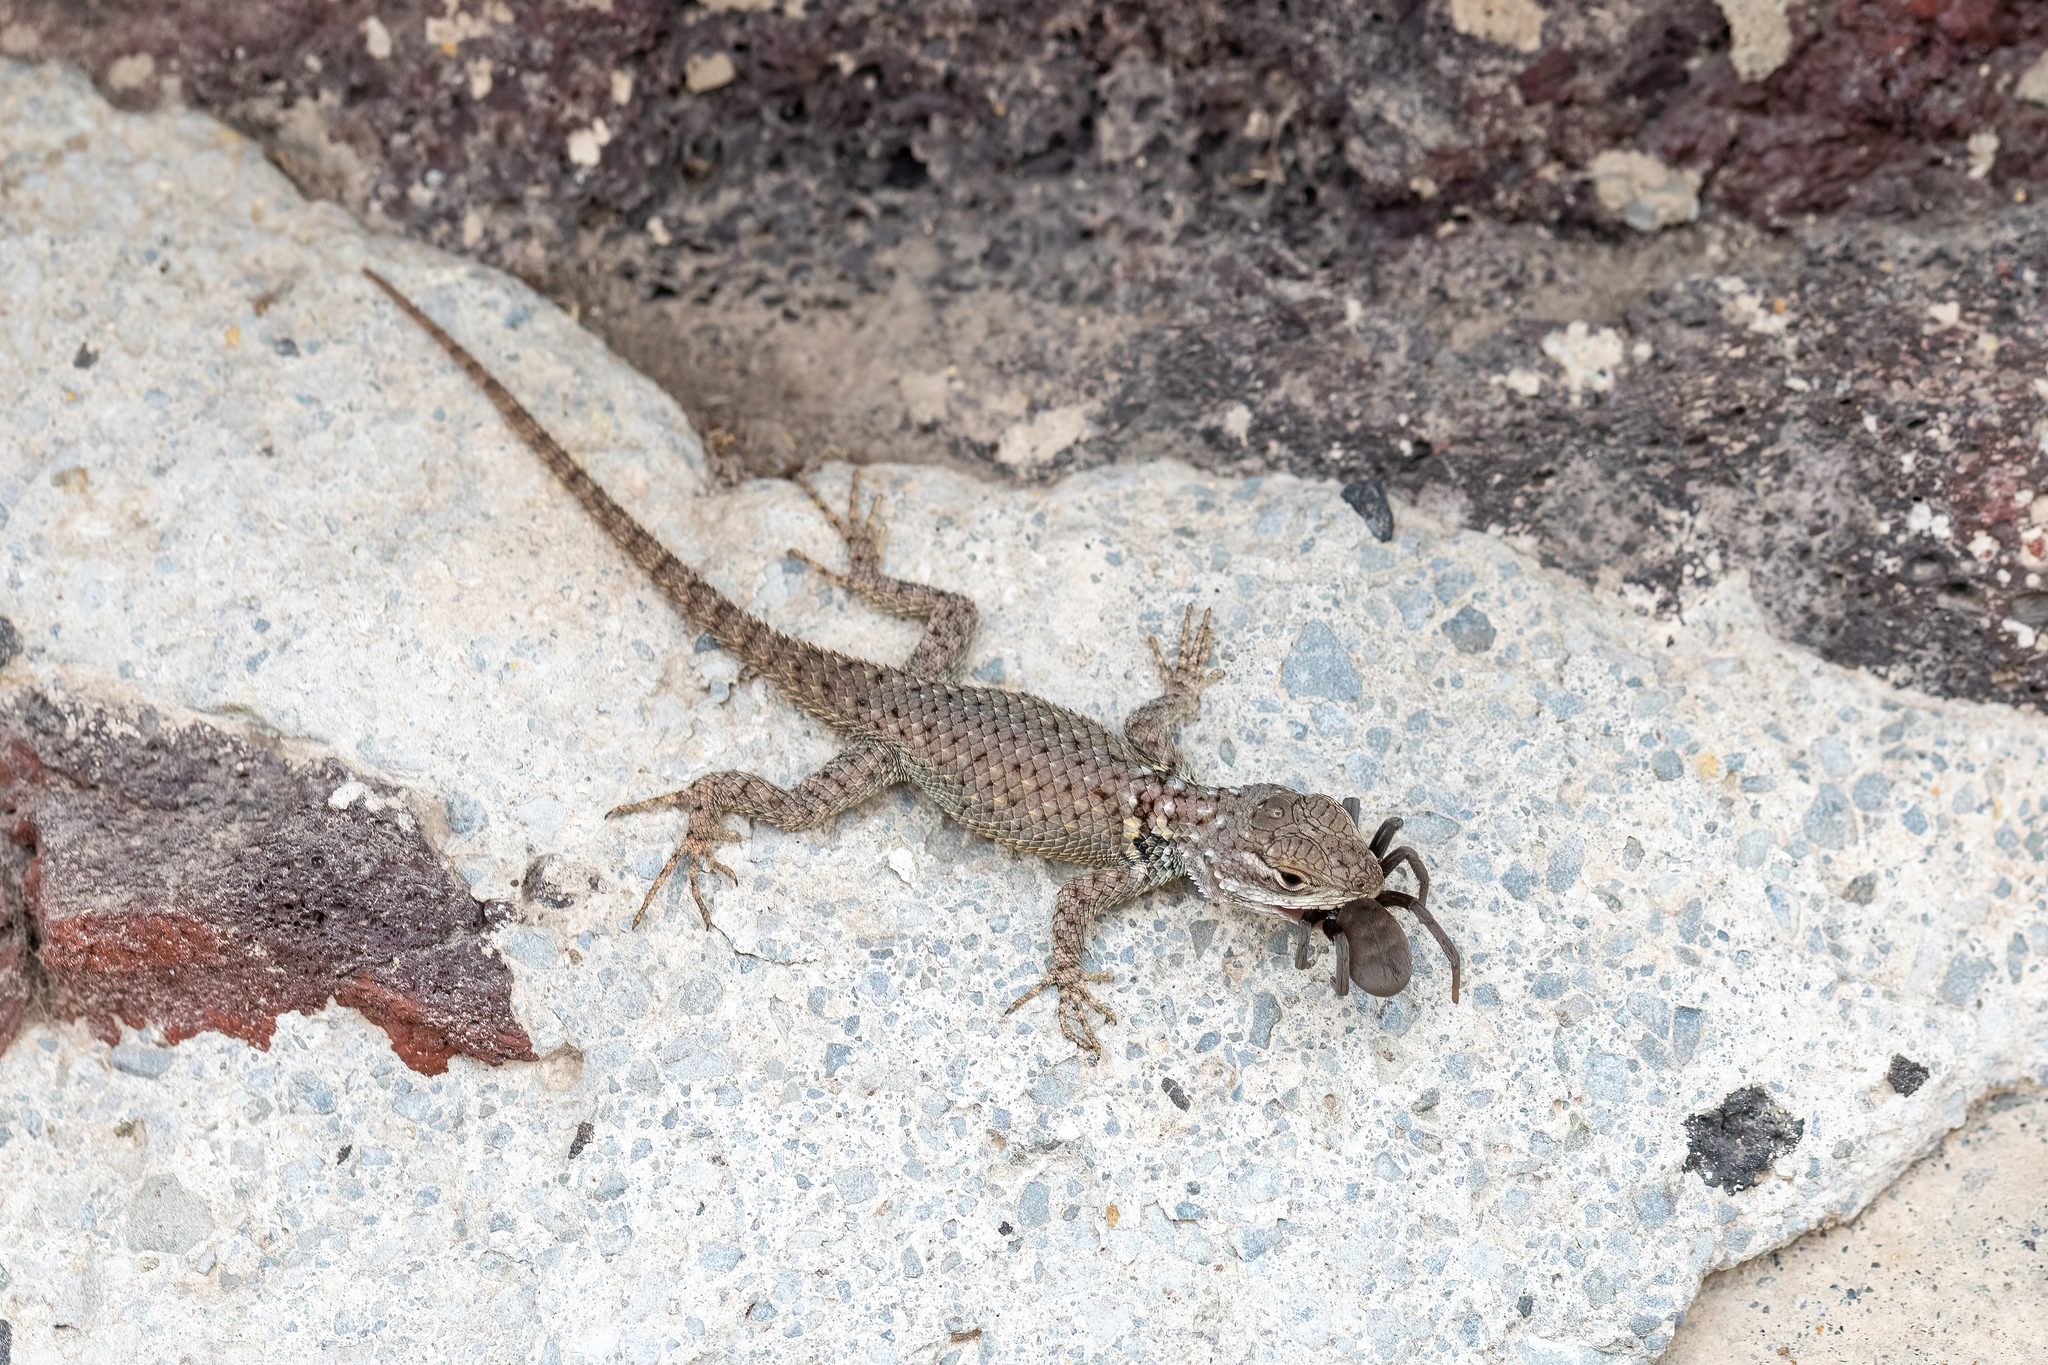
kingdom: Animalia
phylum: Chordata
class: Squamata
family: Phrynosomatidae
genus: Sceloporus
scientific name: Sceloporus torquatus
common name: Central plateau torquate lizard [melanogaster]
